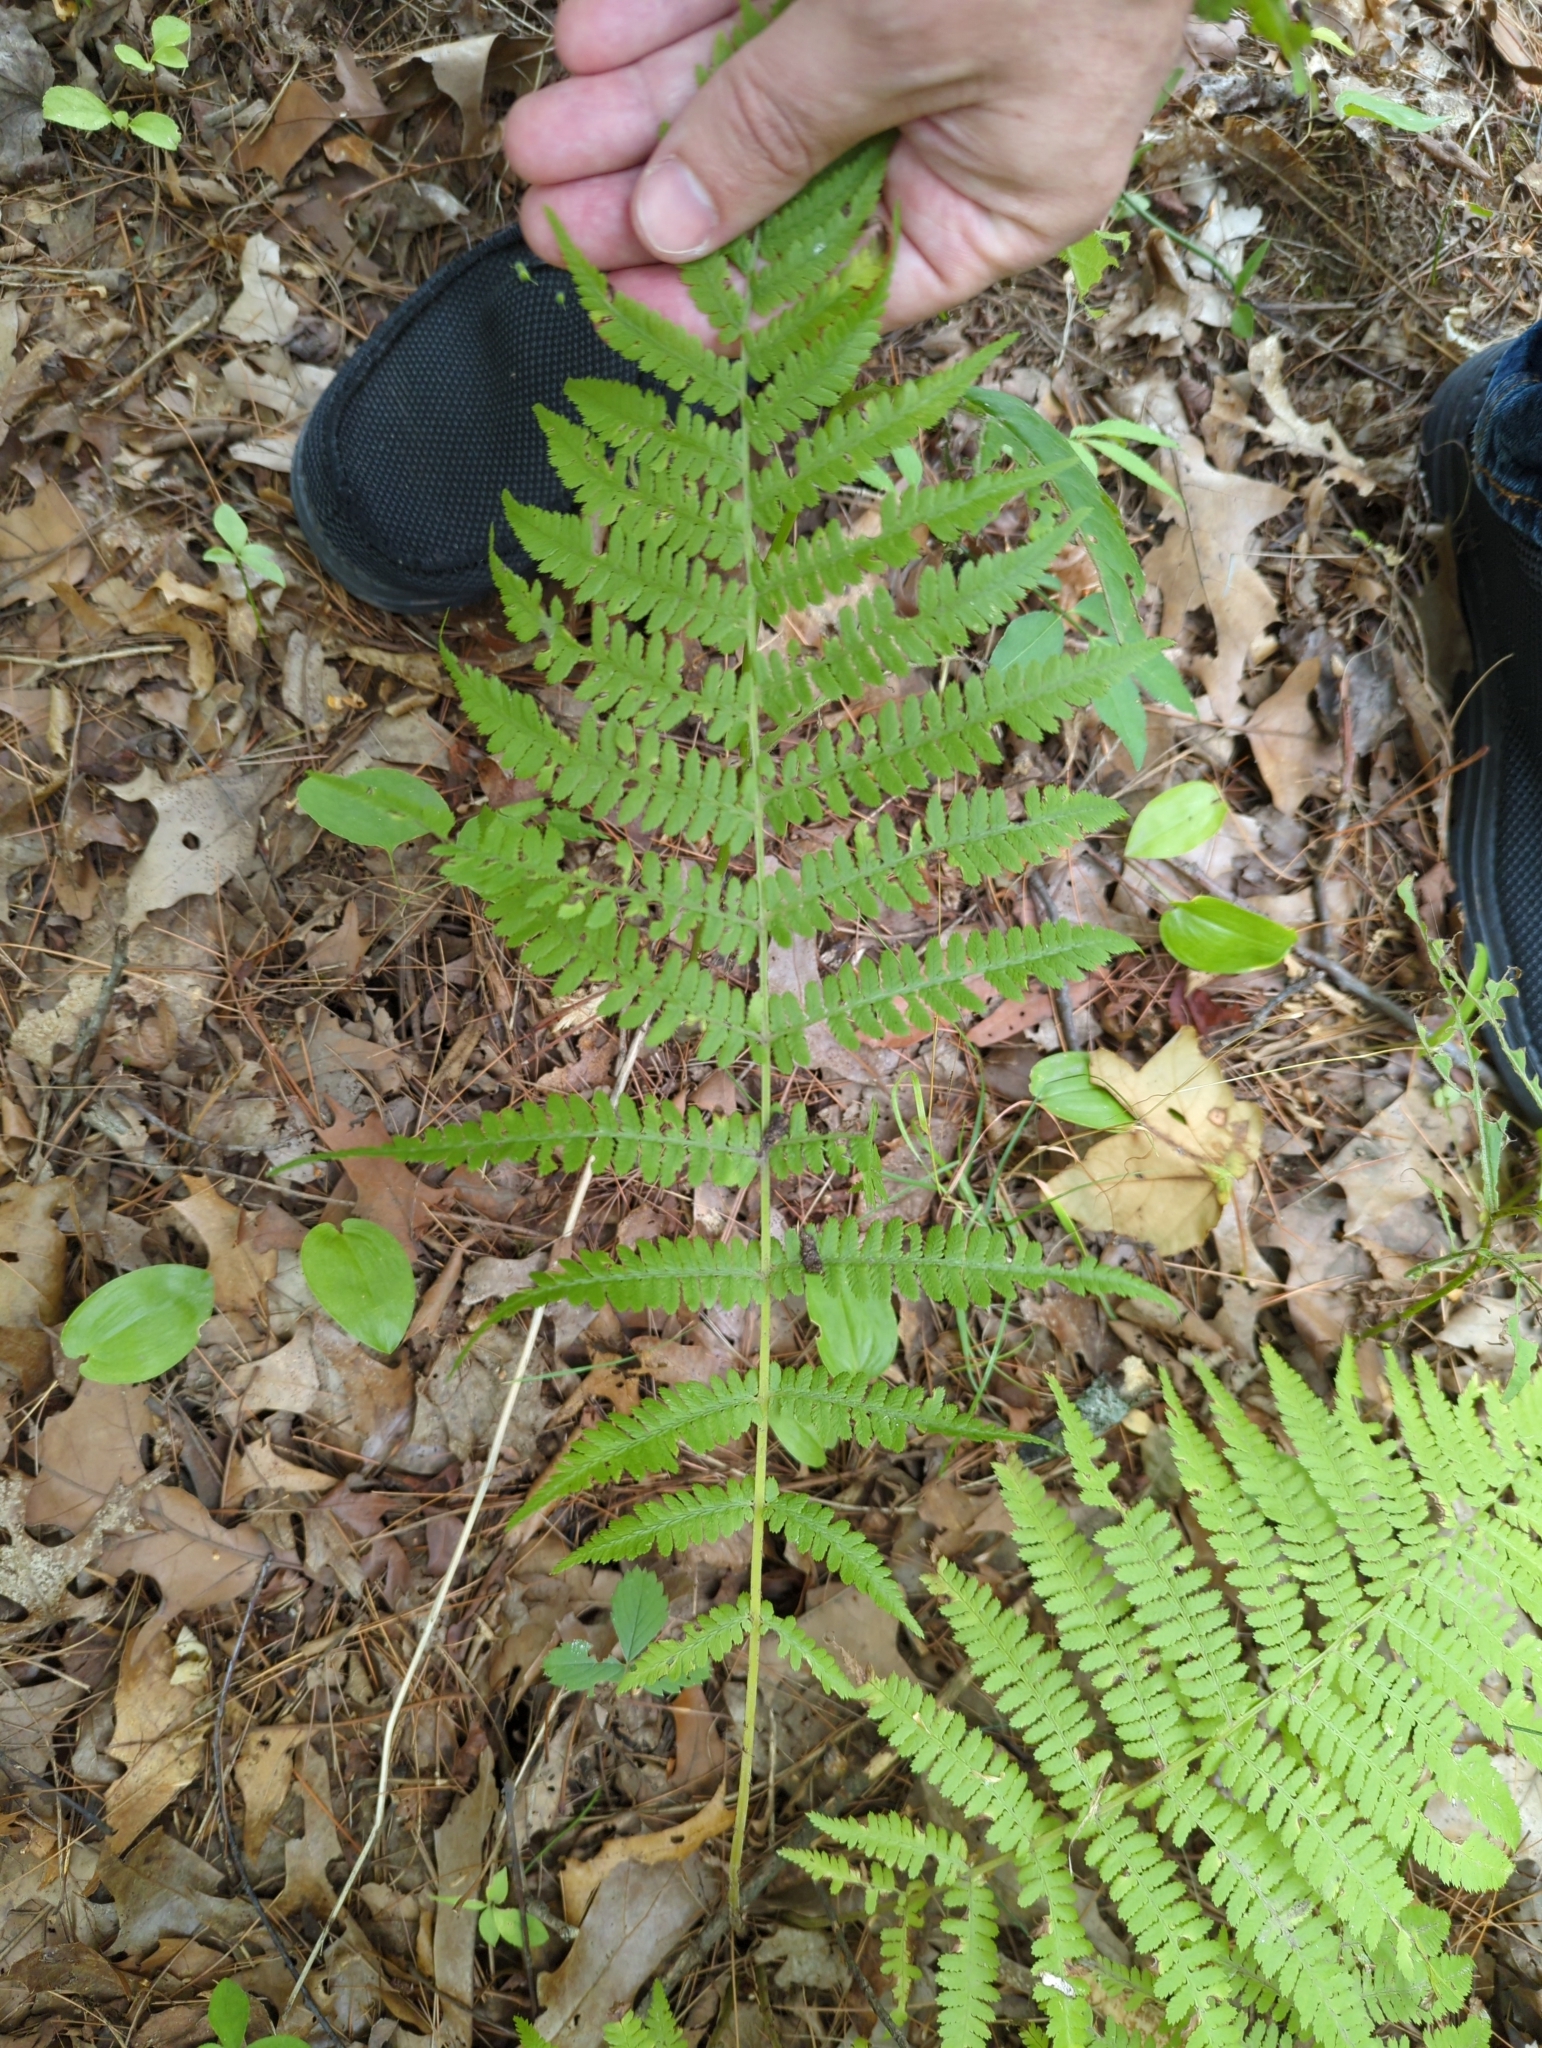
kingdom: Plantae
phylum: Tracheophyta
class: Polypodiopsida
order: Polypodiales
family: Thelypteridaceae
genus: Amauropelta
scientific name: Amauropelta noveboracensis
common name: New york fern
